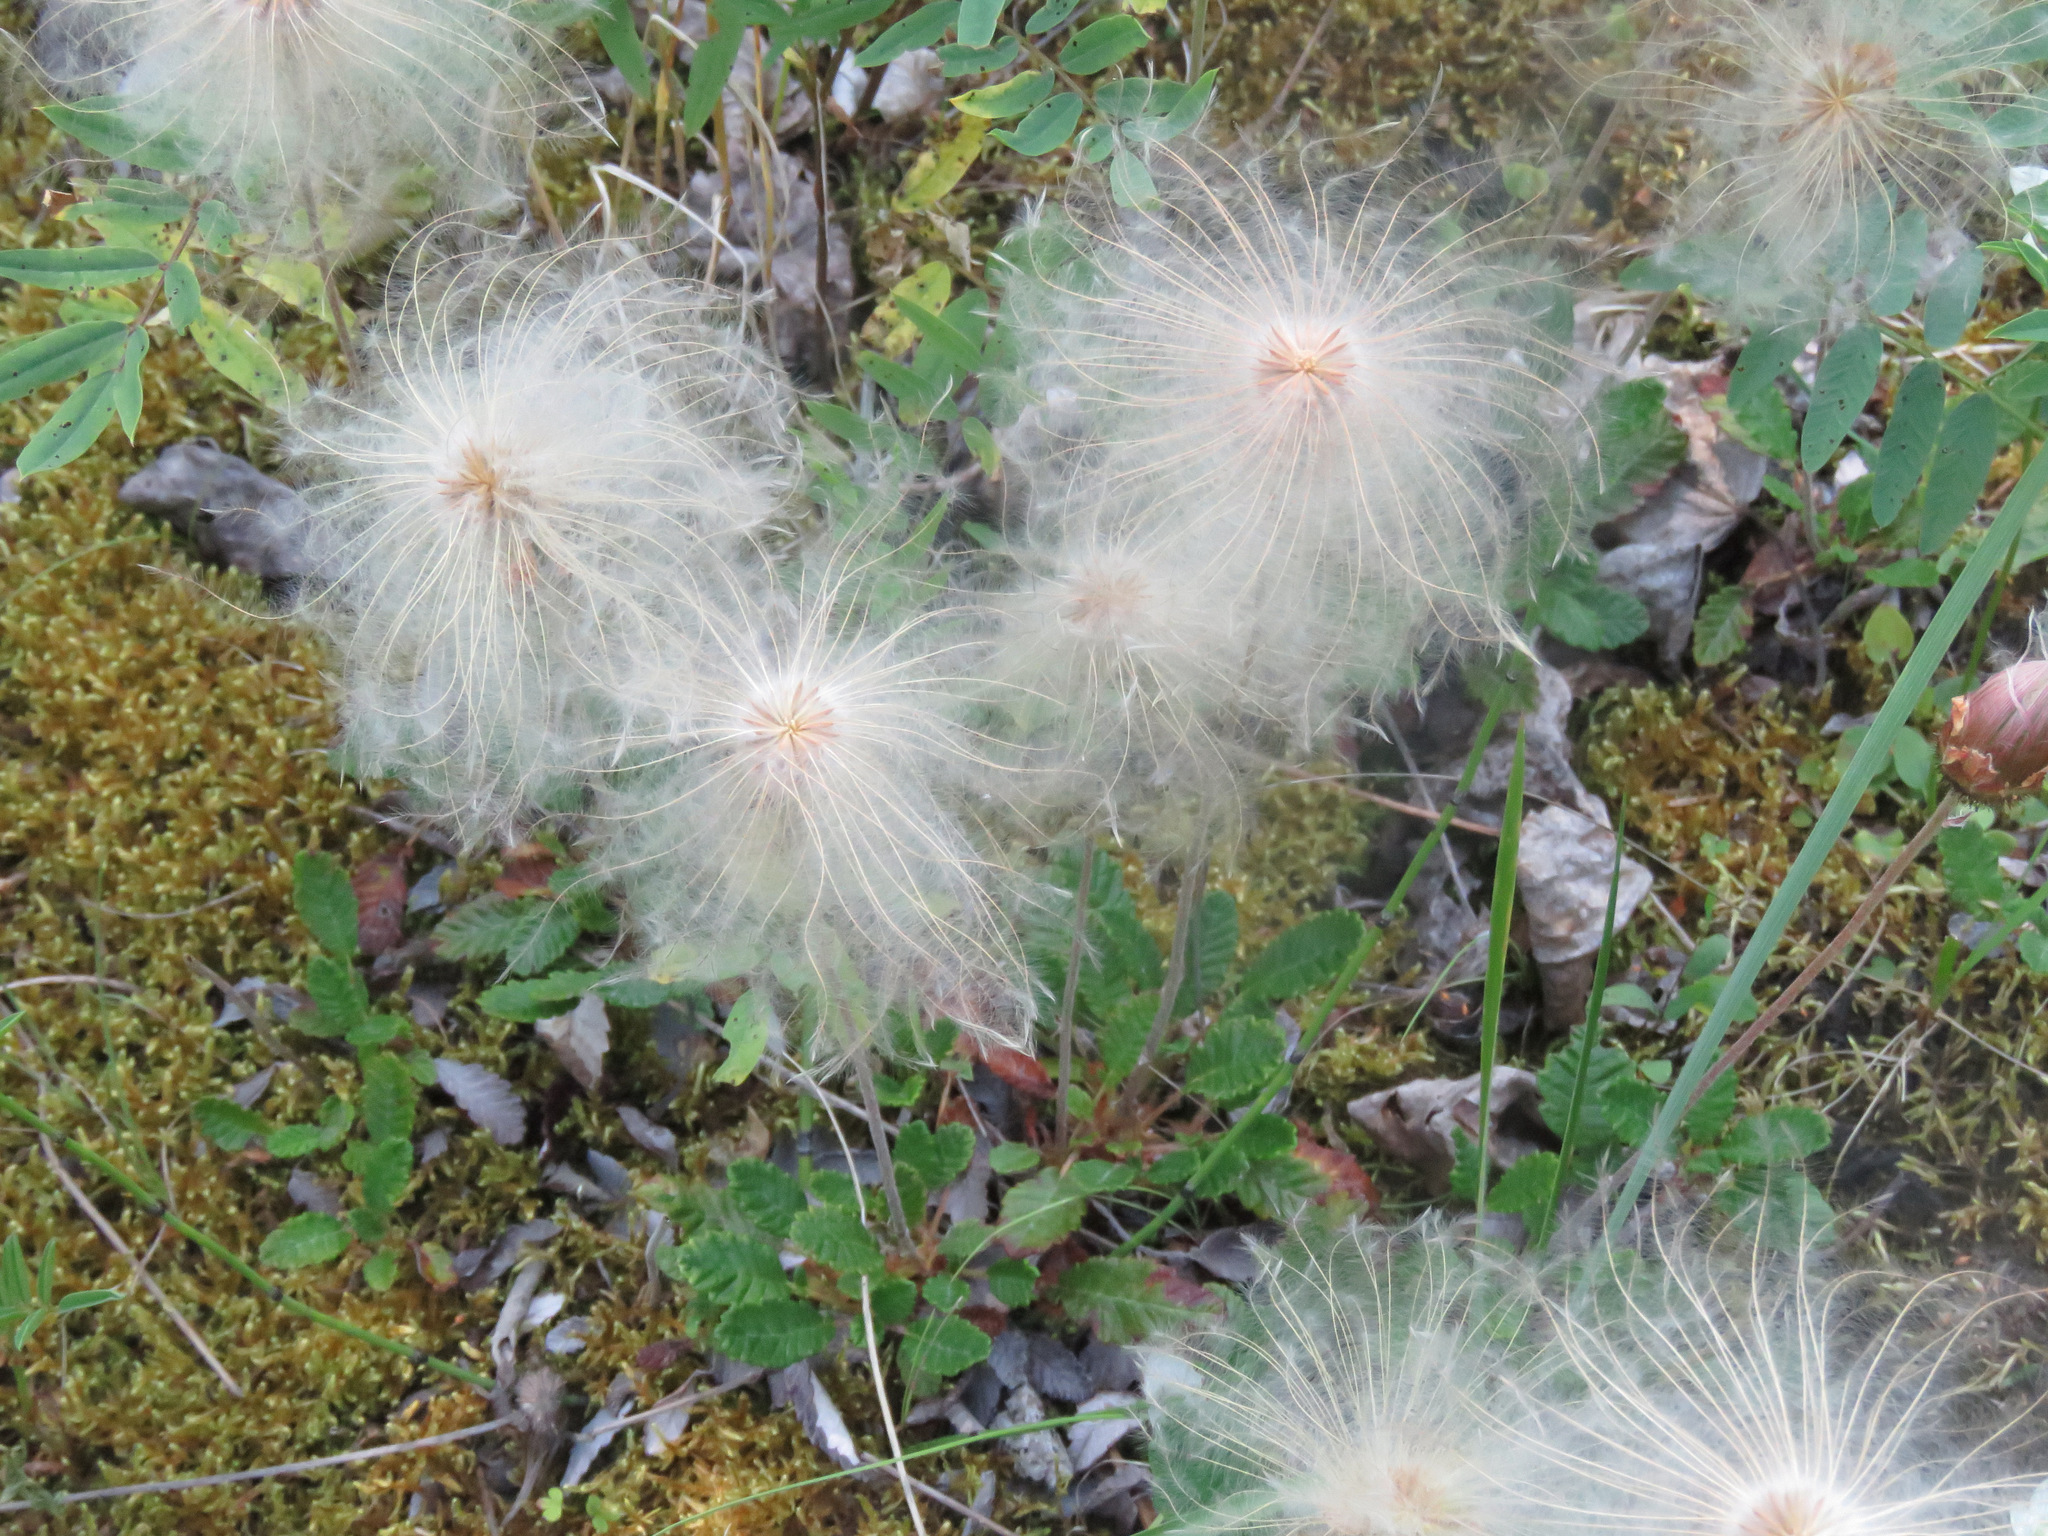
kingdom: Plantae
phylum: Tracheophyta
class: Magnoliopsida
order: Rosales
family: Rosaceae
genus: Dryas
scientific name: Dryas drummondii
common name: Drummond's dryad
